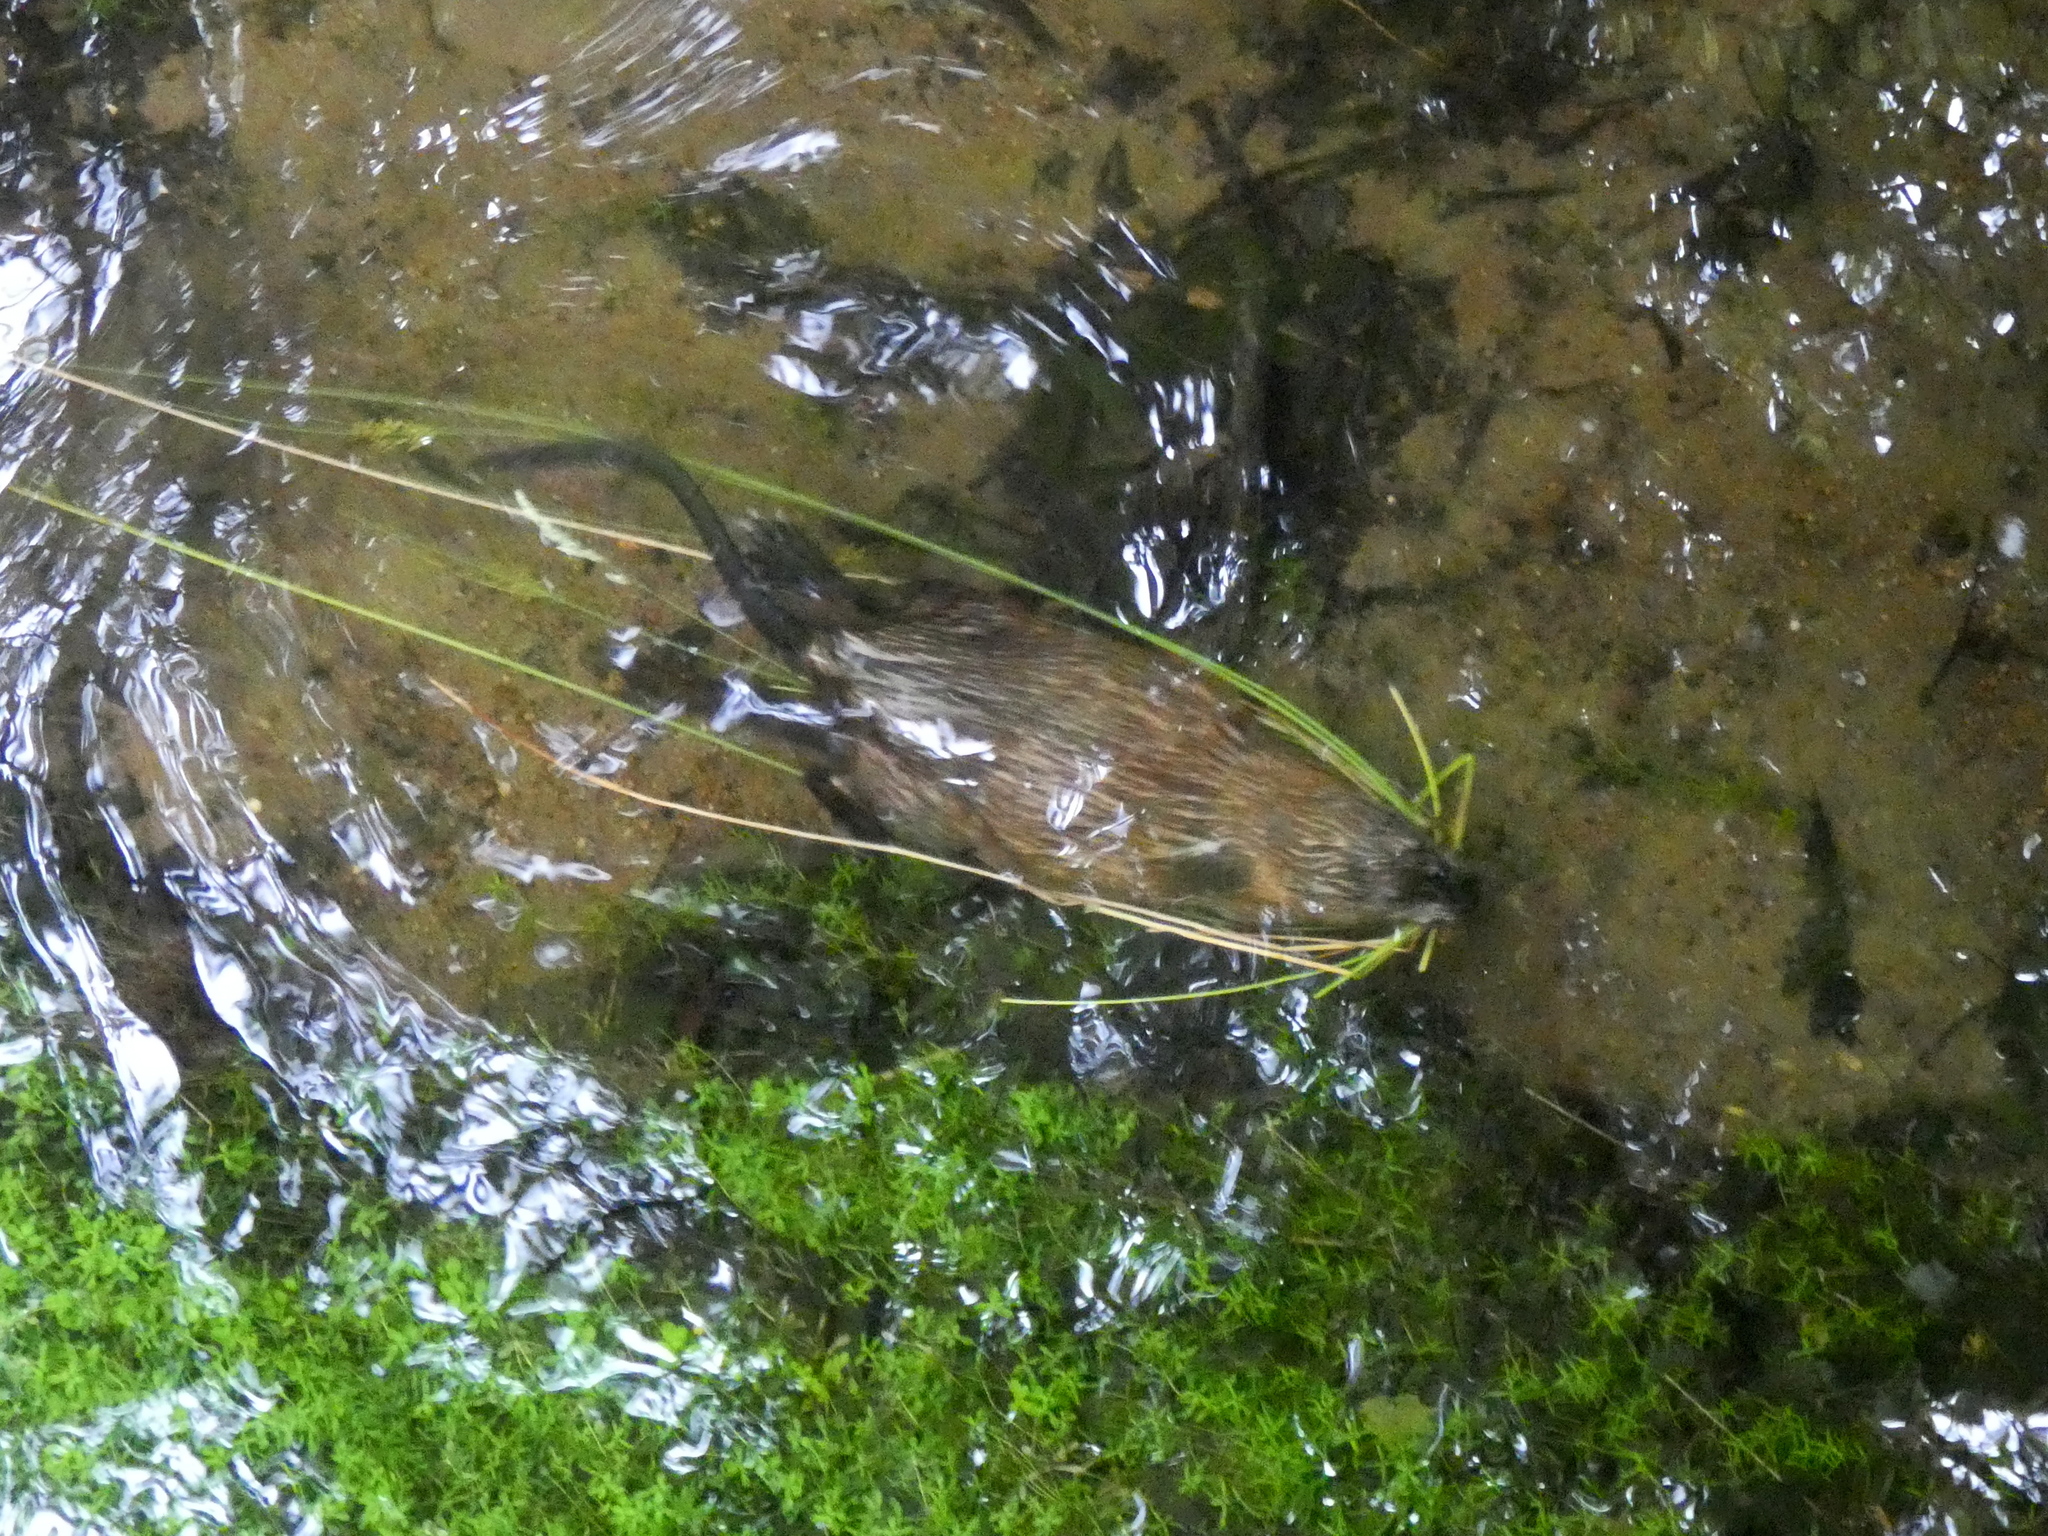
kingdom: Animalia
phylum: Chordata
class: Mammalia
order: Rodentia
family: Cricetidae
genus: Ondatra
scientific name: Ondatra zibethicus
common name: Muskrat
